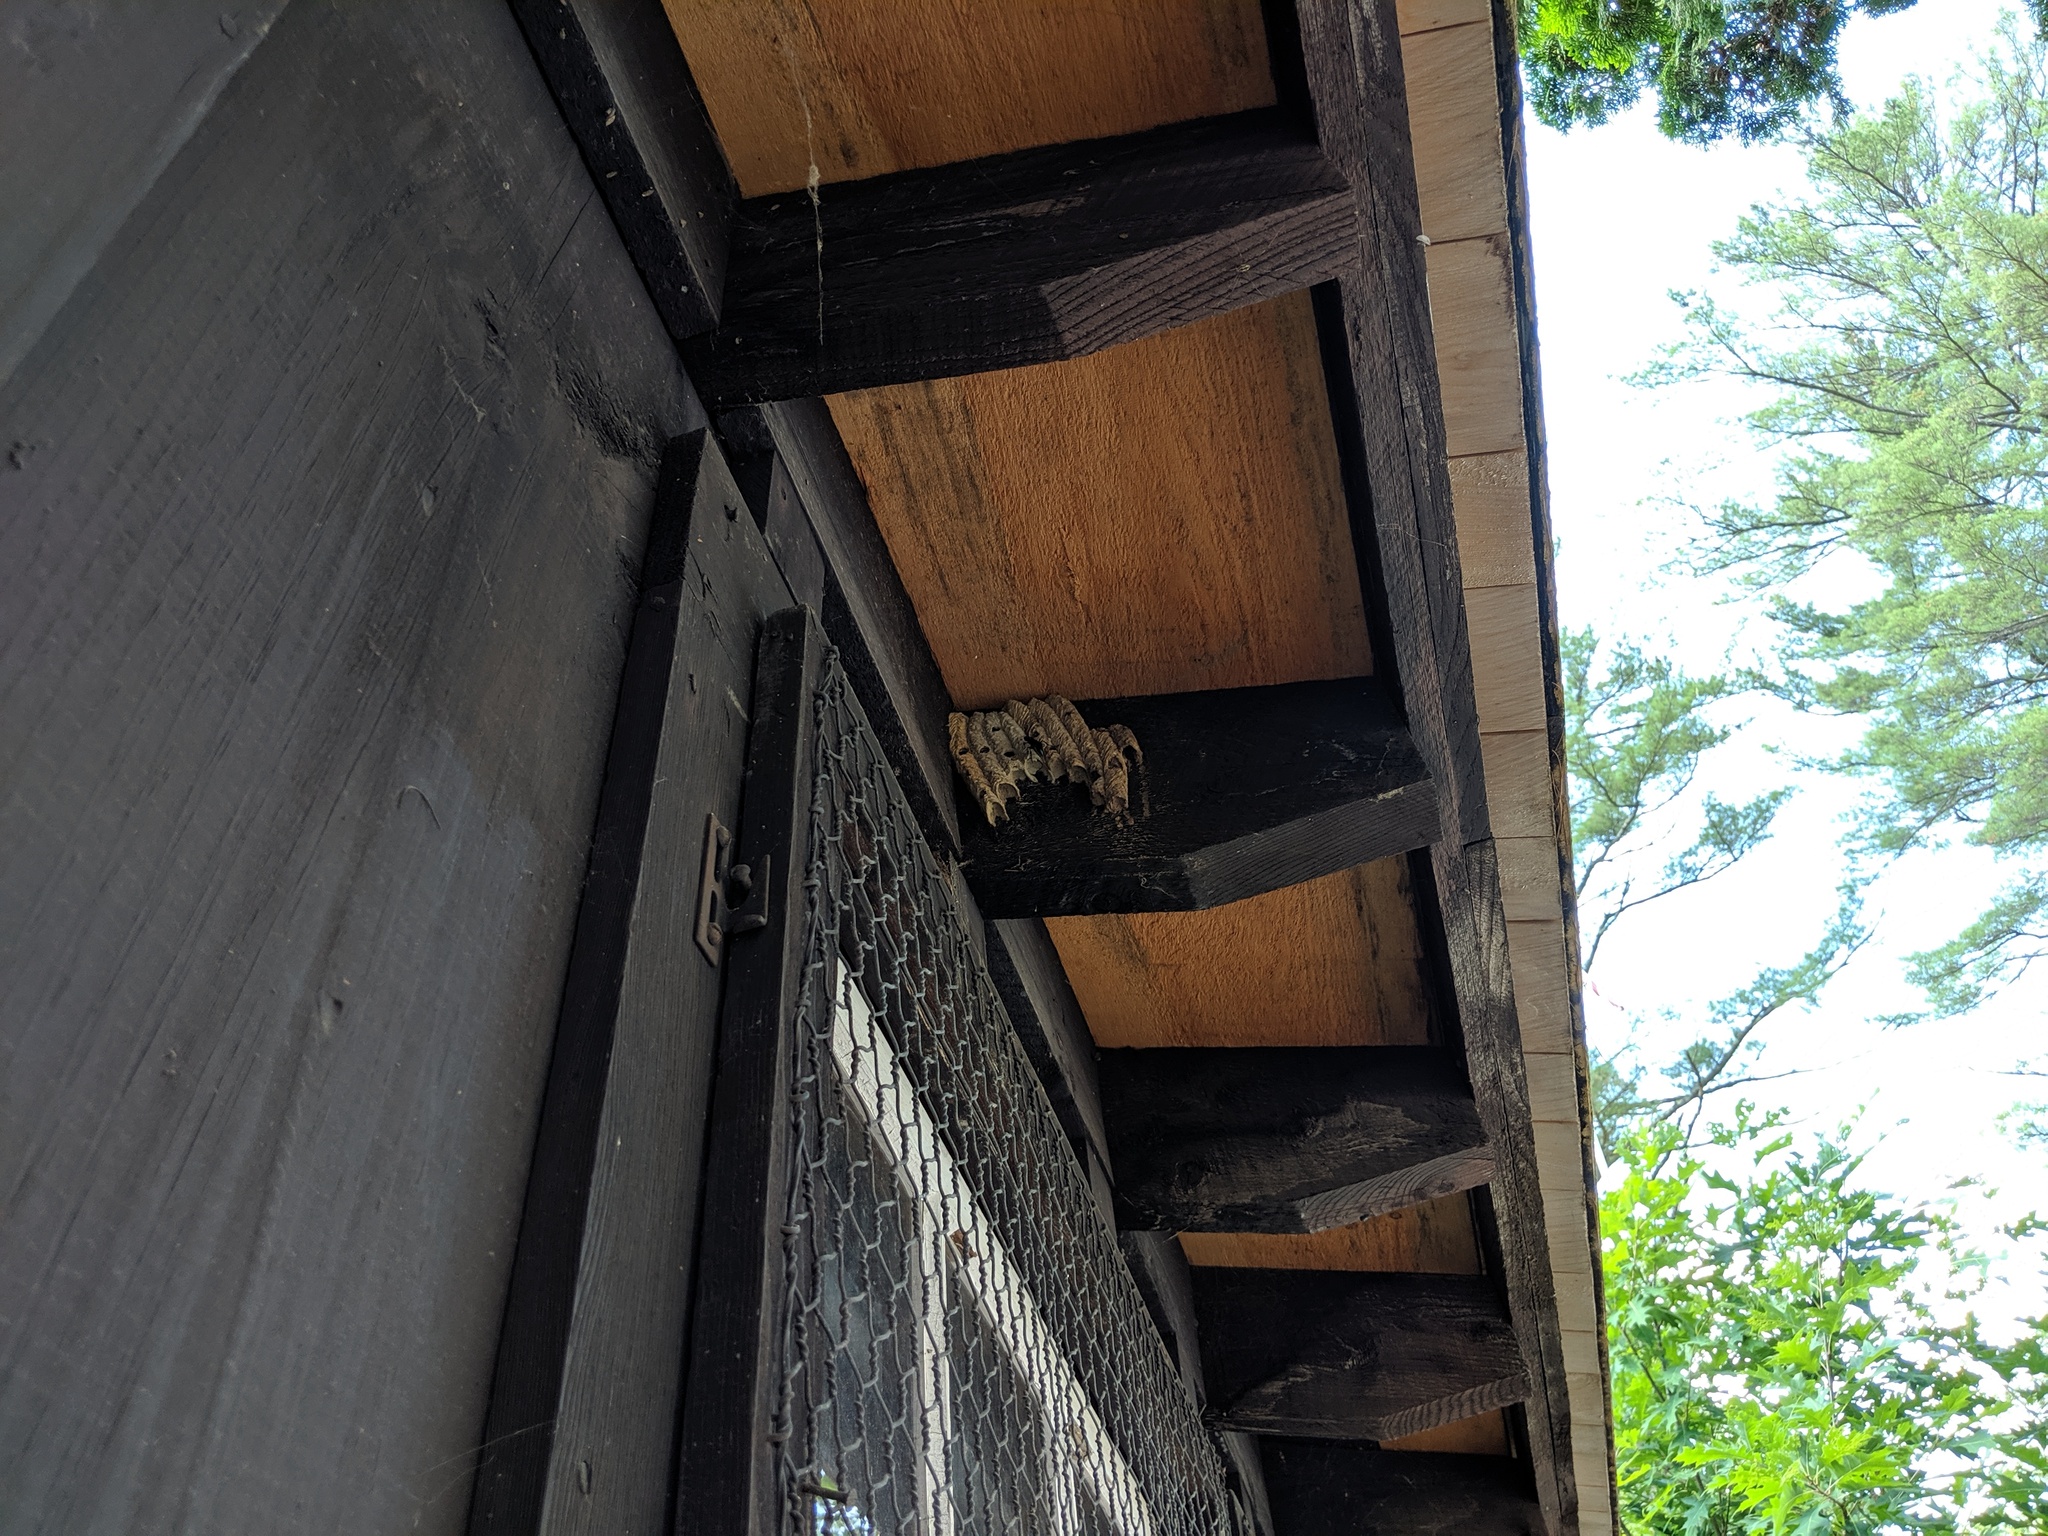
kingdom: Animalia
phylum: Arthropoda
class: Insecta
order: Hymenoptera
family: Crabronidae
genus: Trypoxylon
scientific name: Trypoxylon politum
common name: Organ-pipe mud-dauber wasp
